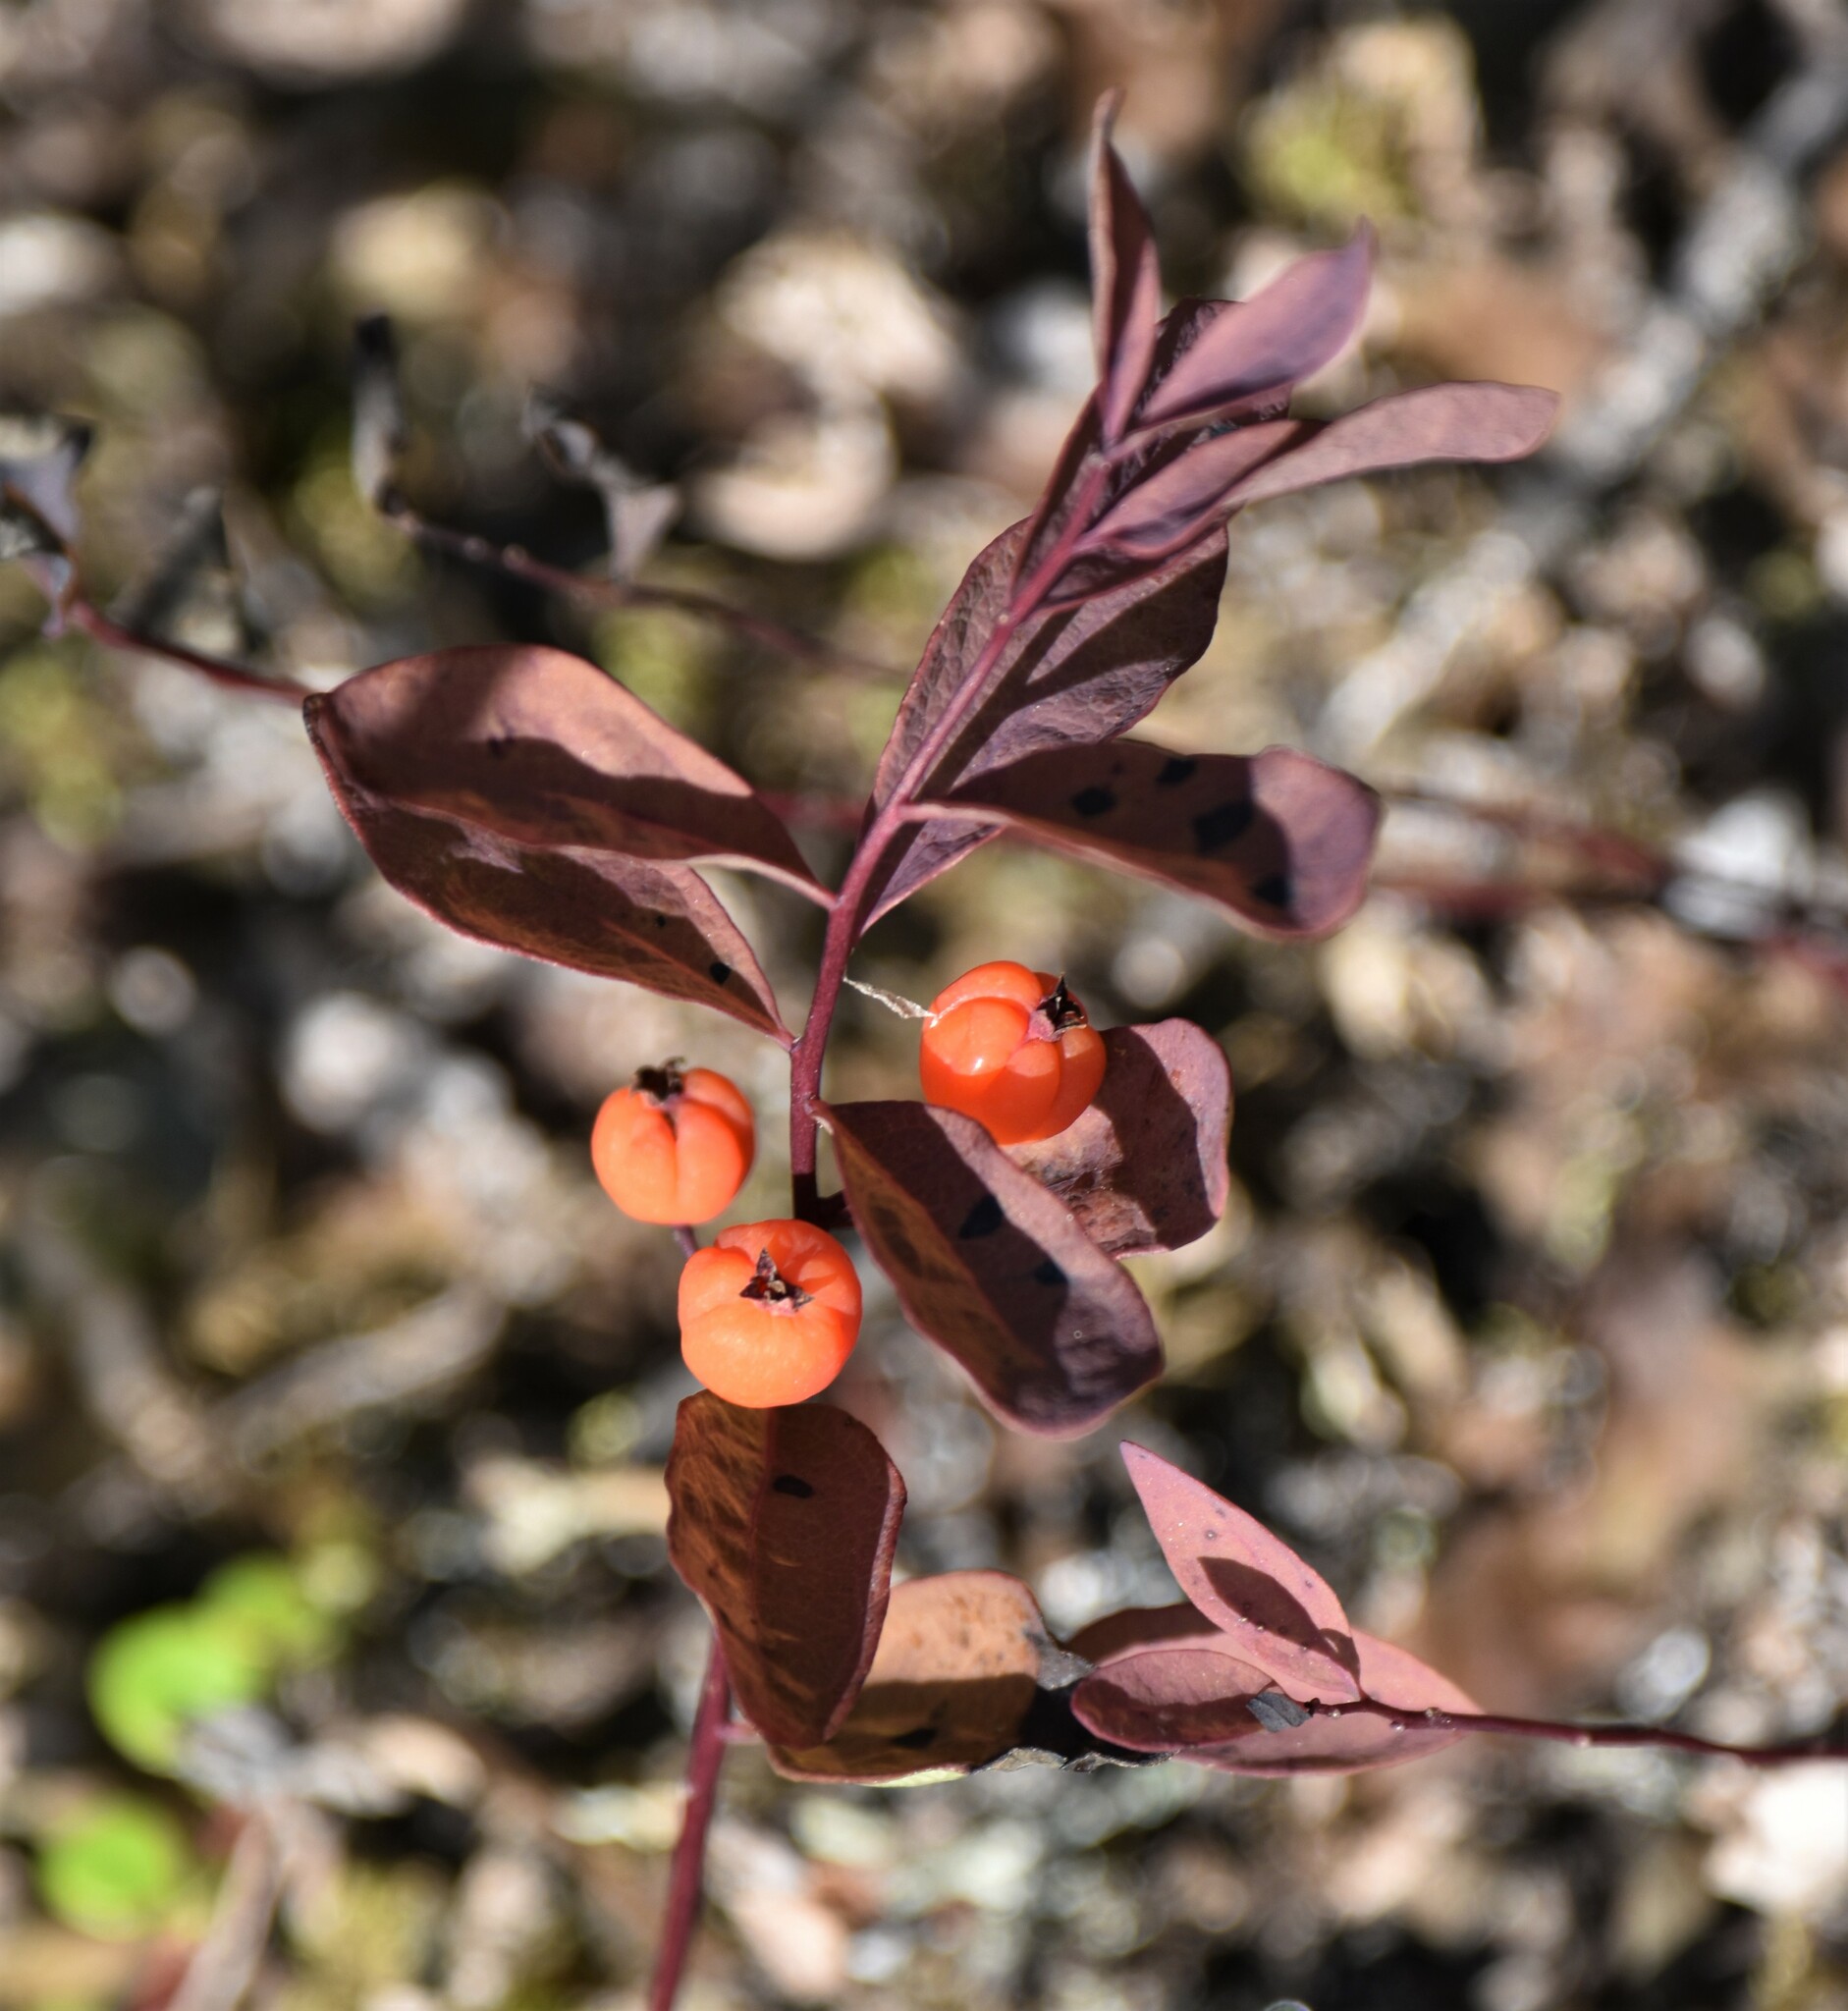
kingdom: Plantae
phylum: Tracheophyta
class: Magnoliopsida
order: Santalales
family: Comandraceae
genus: Geocaulon
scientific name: Geocaulon lividum
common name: Earthberry
